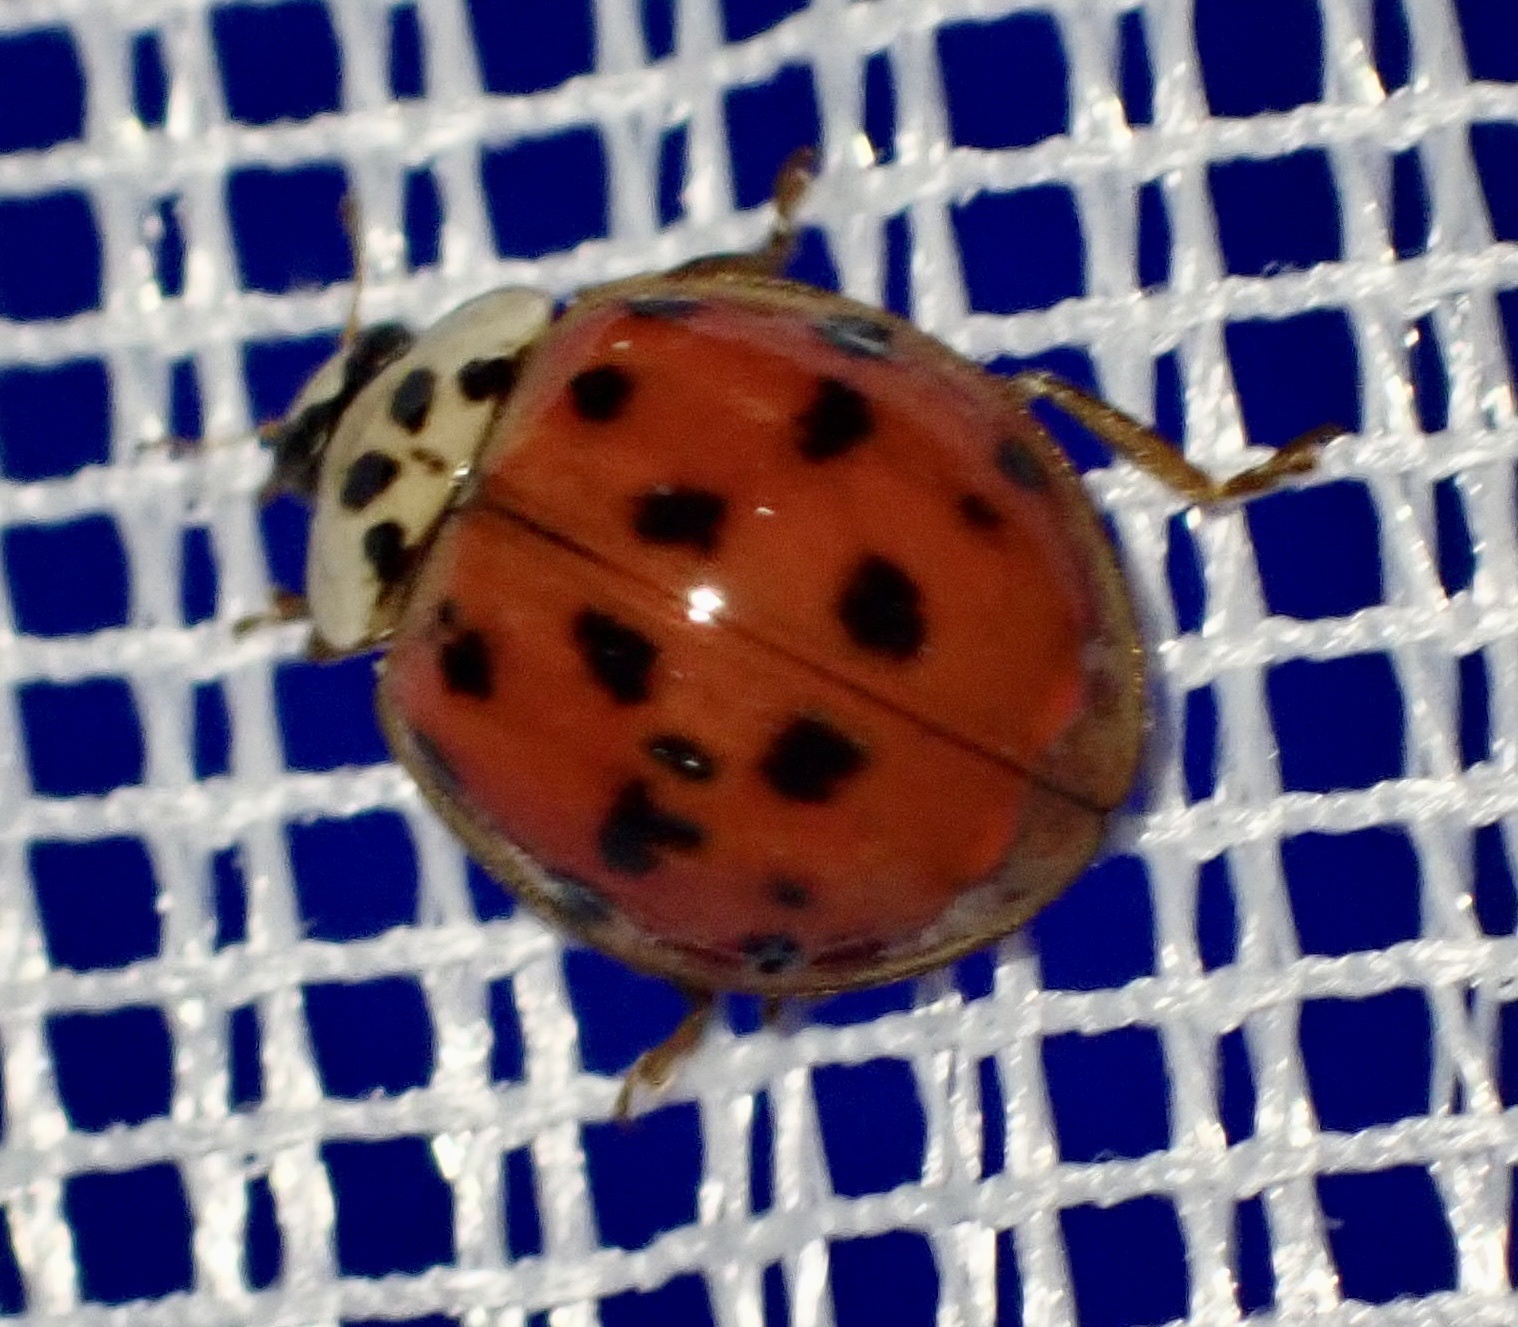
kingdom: Animalia
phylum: Arthropoda
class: Insecta
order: Coleoptera
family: Coccinellidae
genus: Harmonia
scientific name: Harmonia axyridis
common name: Harlequin ladybird
